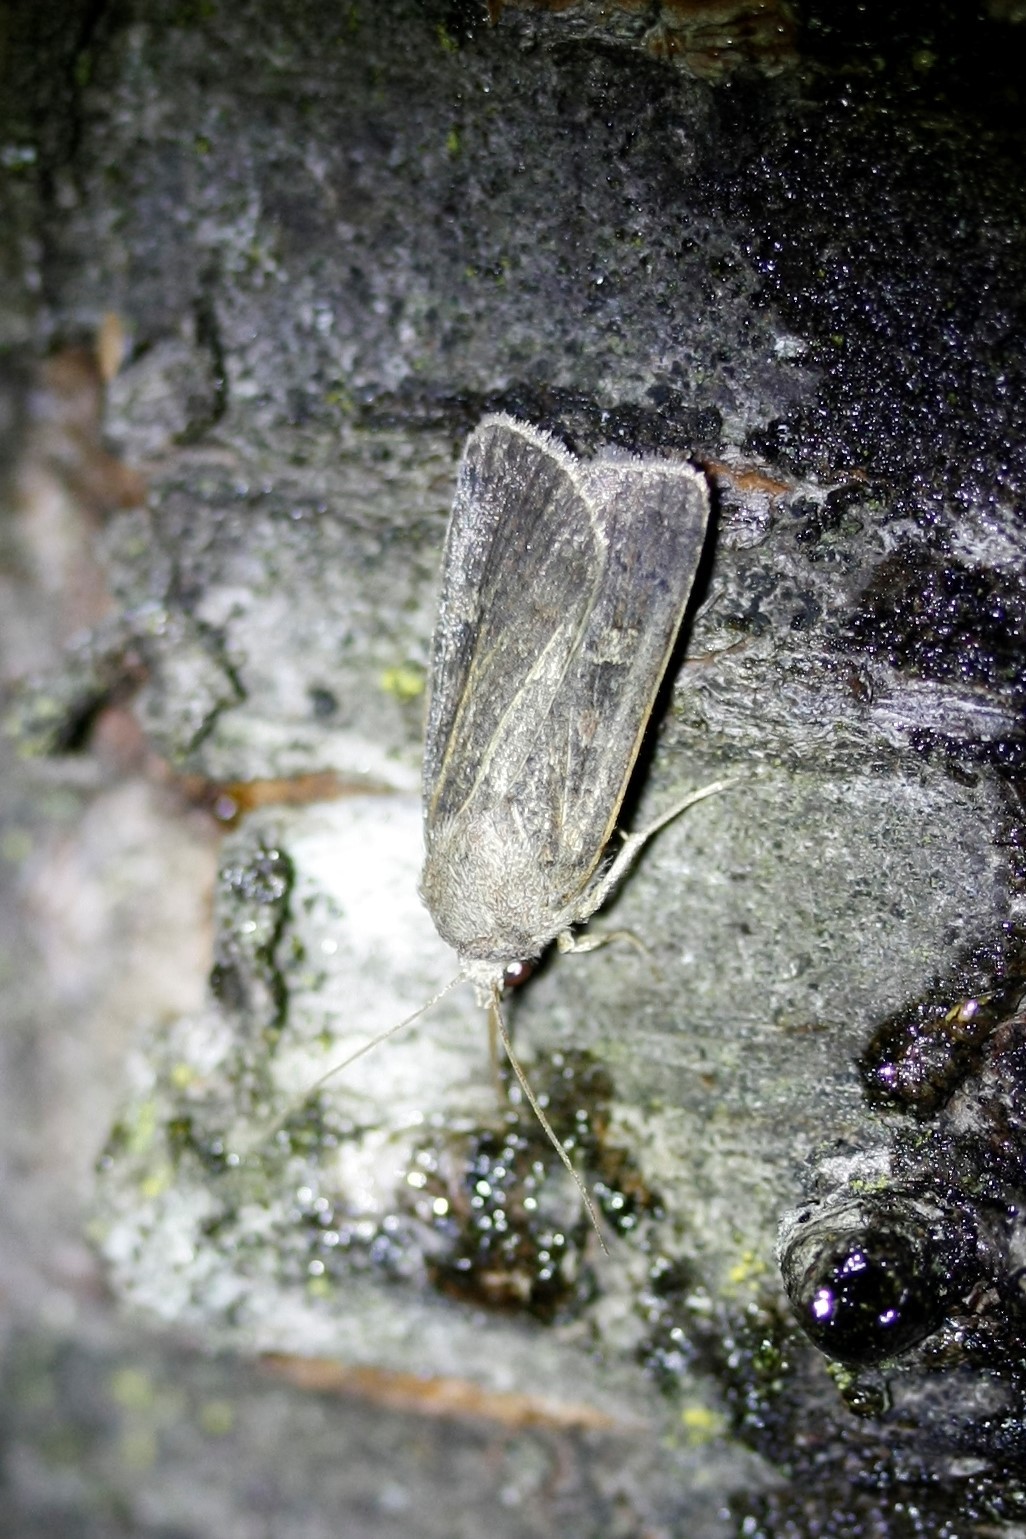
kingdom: Animalia
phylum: Arthropoda
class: Insecta
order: Lepidoptera
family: Noctuidae
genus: Xestia
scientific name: Xestia xanthographa
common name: Square-spot rustic
